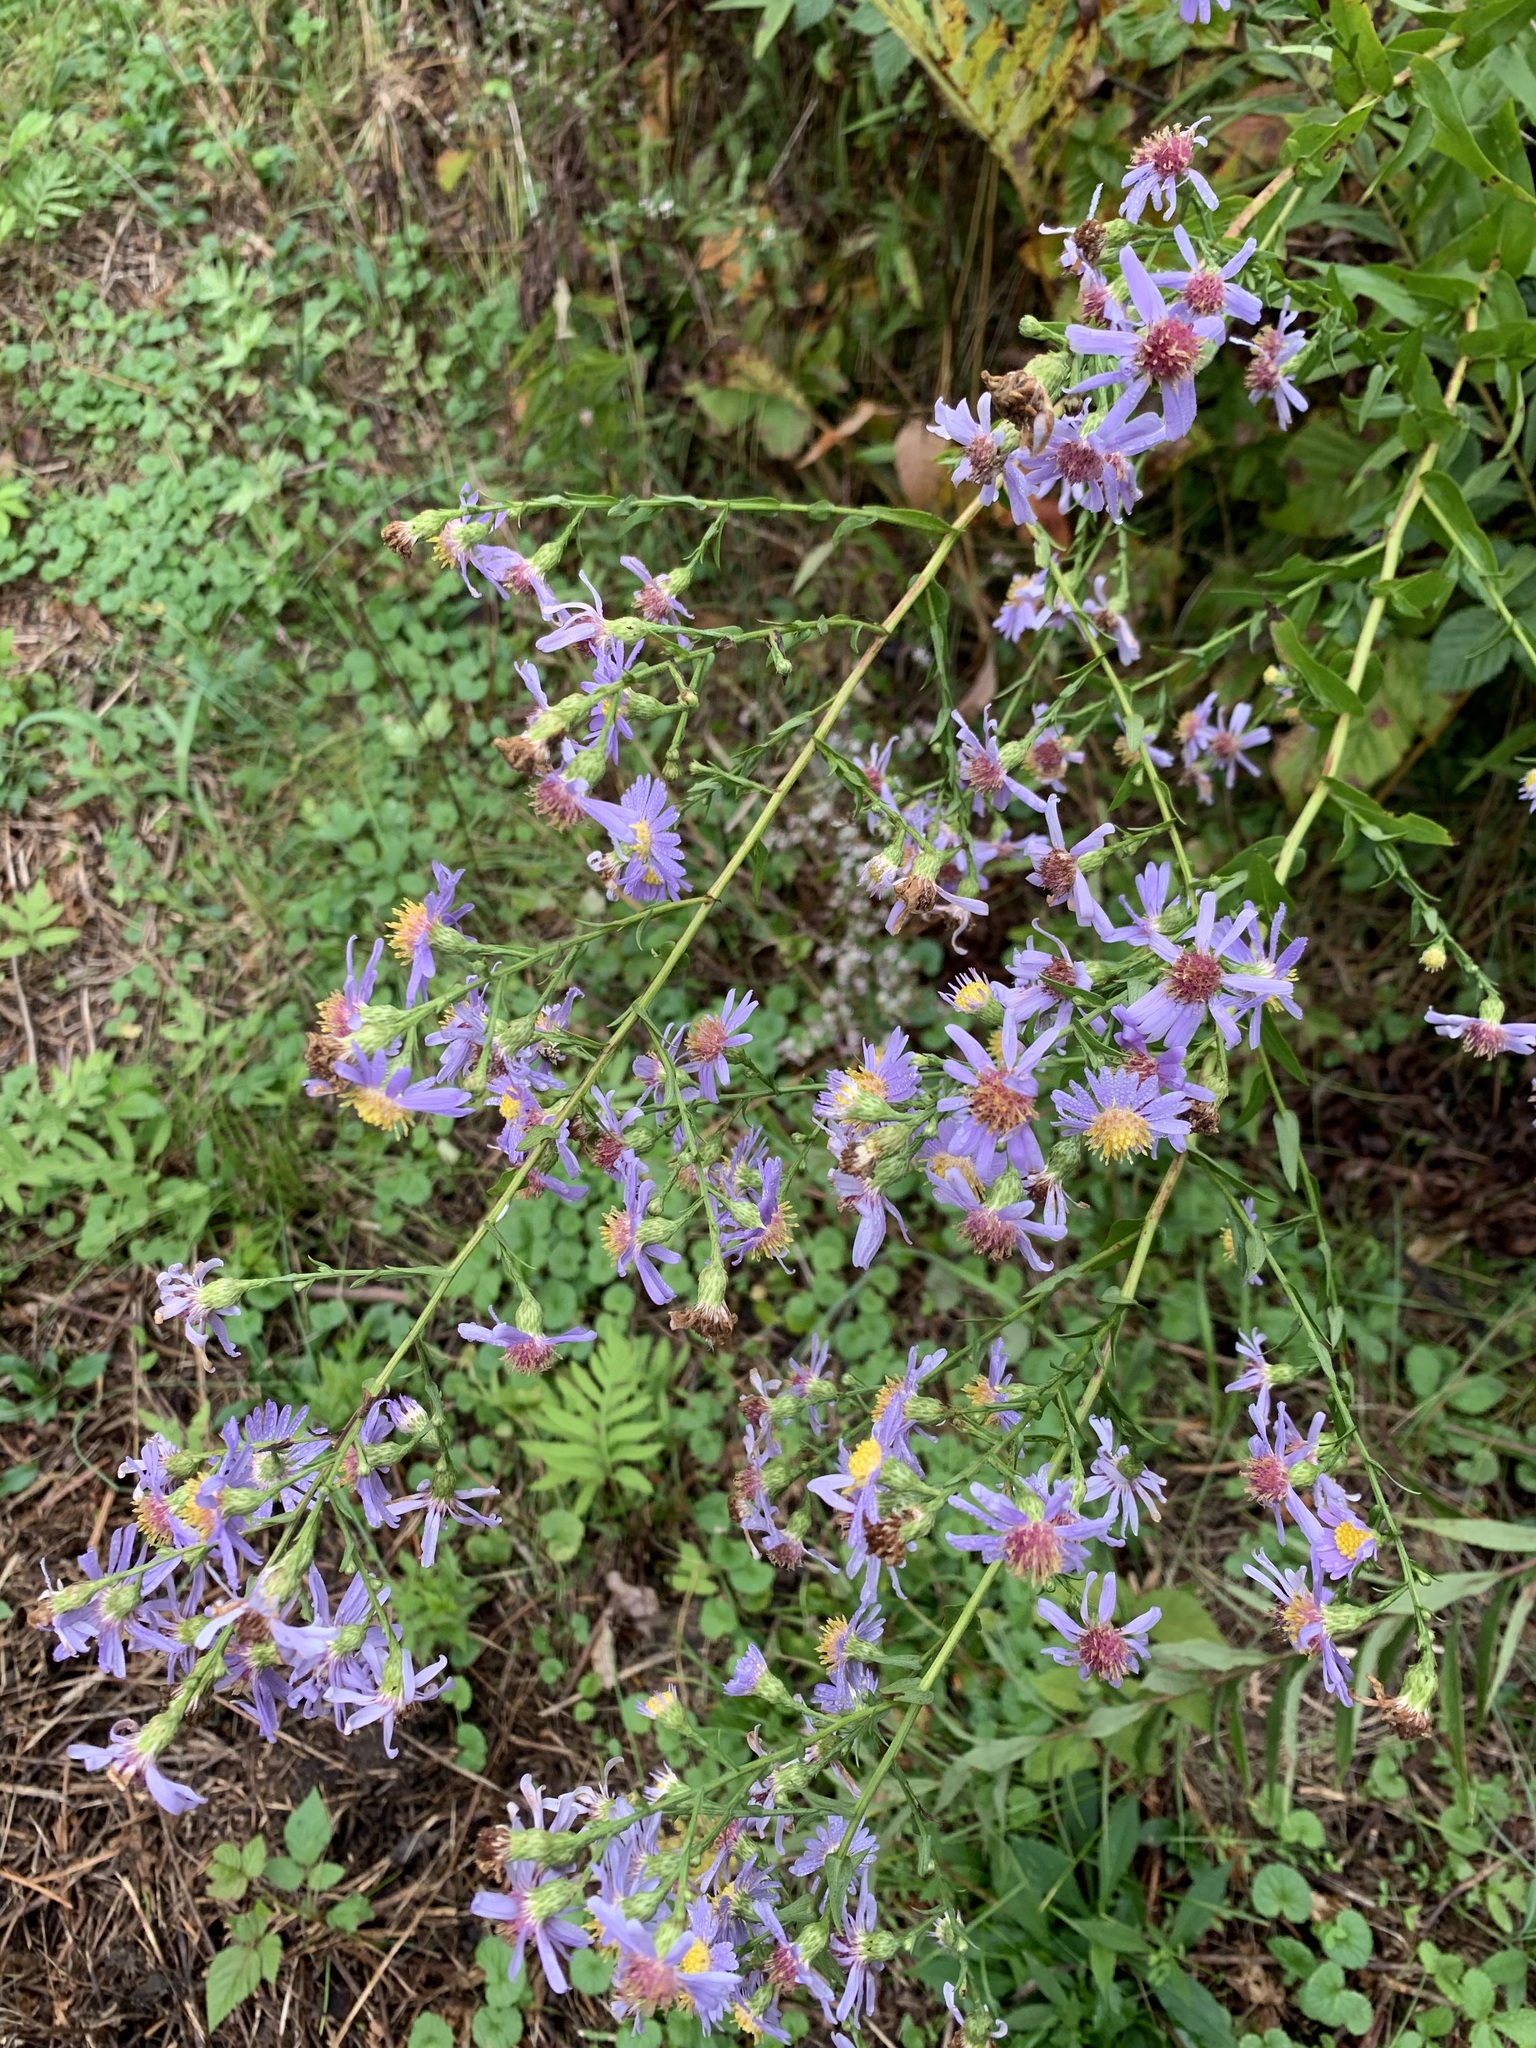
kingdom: Plantae
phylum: Tracheophyta
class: Magnoliopsida
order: Asterales
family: Asteraceae
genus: Symphyotrichum
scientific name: Symphyotrichum laeve
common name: Glaucous aster
